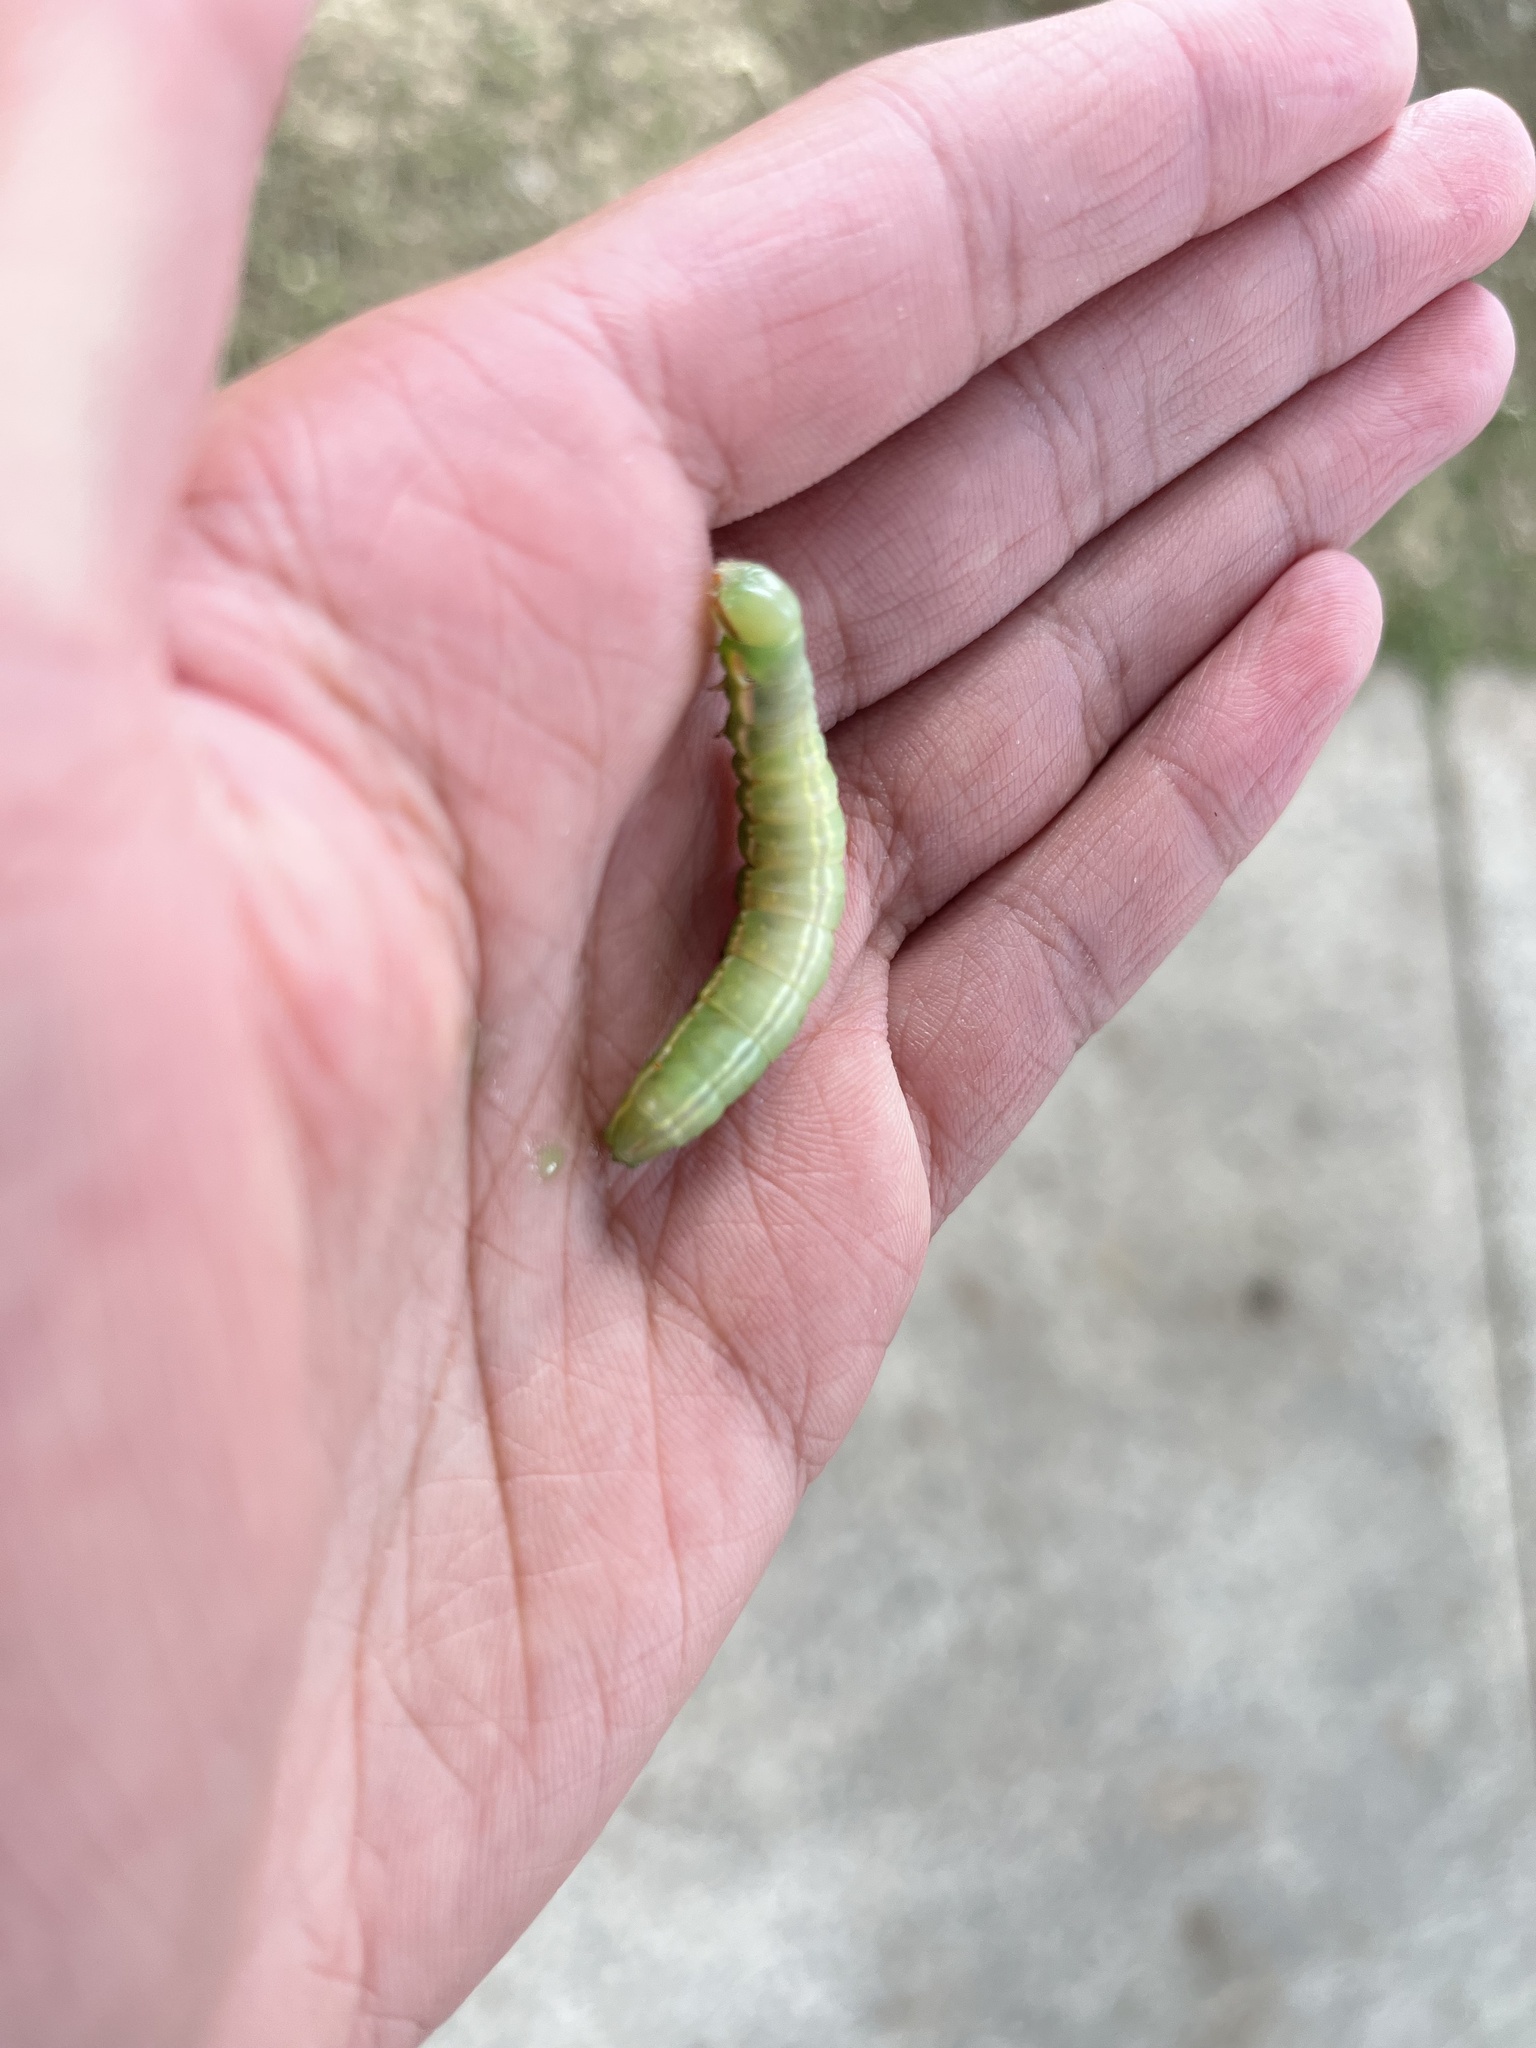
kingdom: Animalia
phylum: Arthropoda
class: Insecta
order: Lepidoptera
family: Notodontidae
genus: Peridea
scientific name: Peridea angulosa
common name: Angulose prominent
